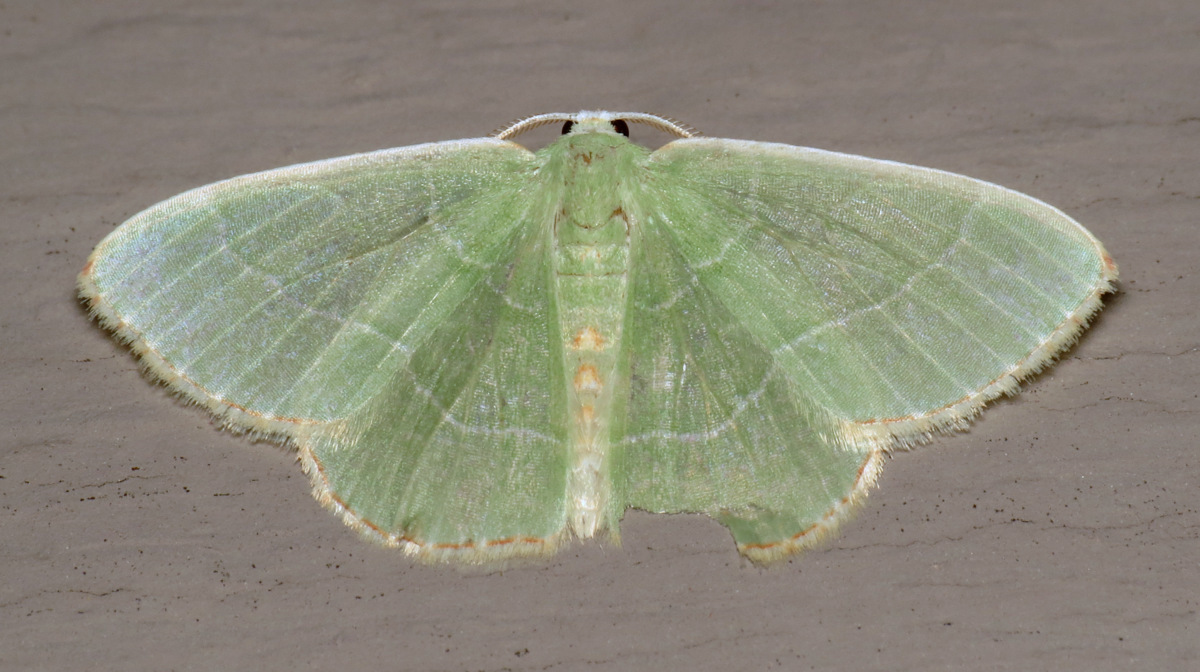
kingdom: Animalia
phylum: Arthropoda
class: Insecta
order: Lepidoptera
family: Geometridae
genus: Nemoria
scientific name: Nemoria bistriaria
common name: Red-fringed emerald
